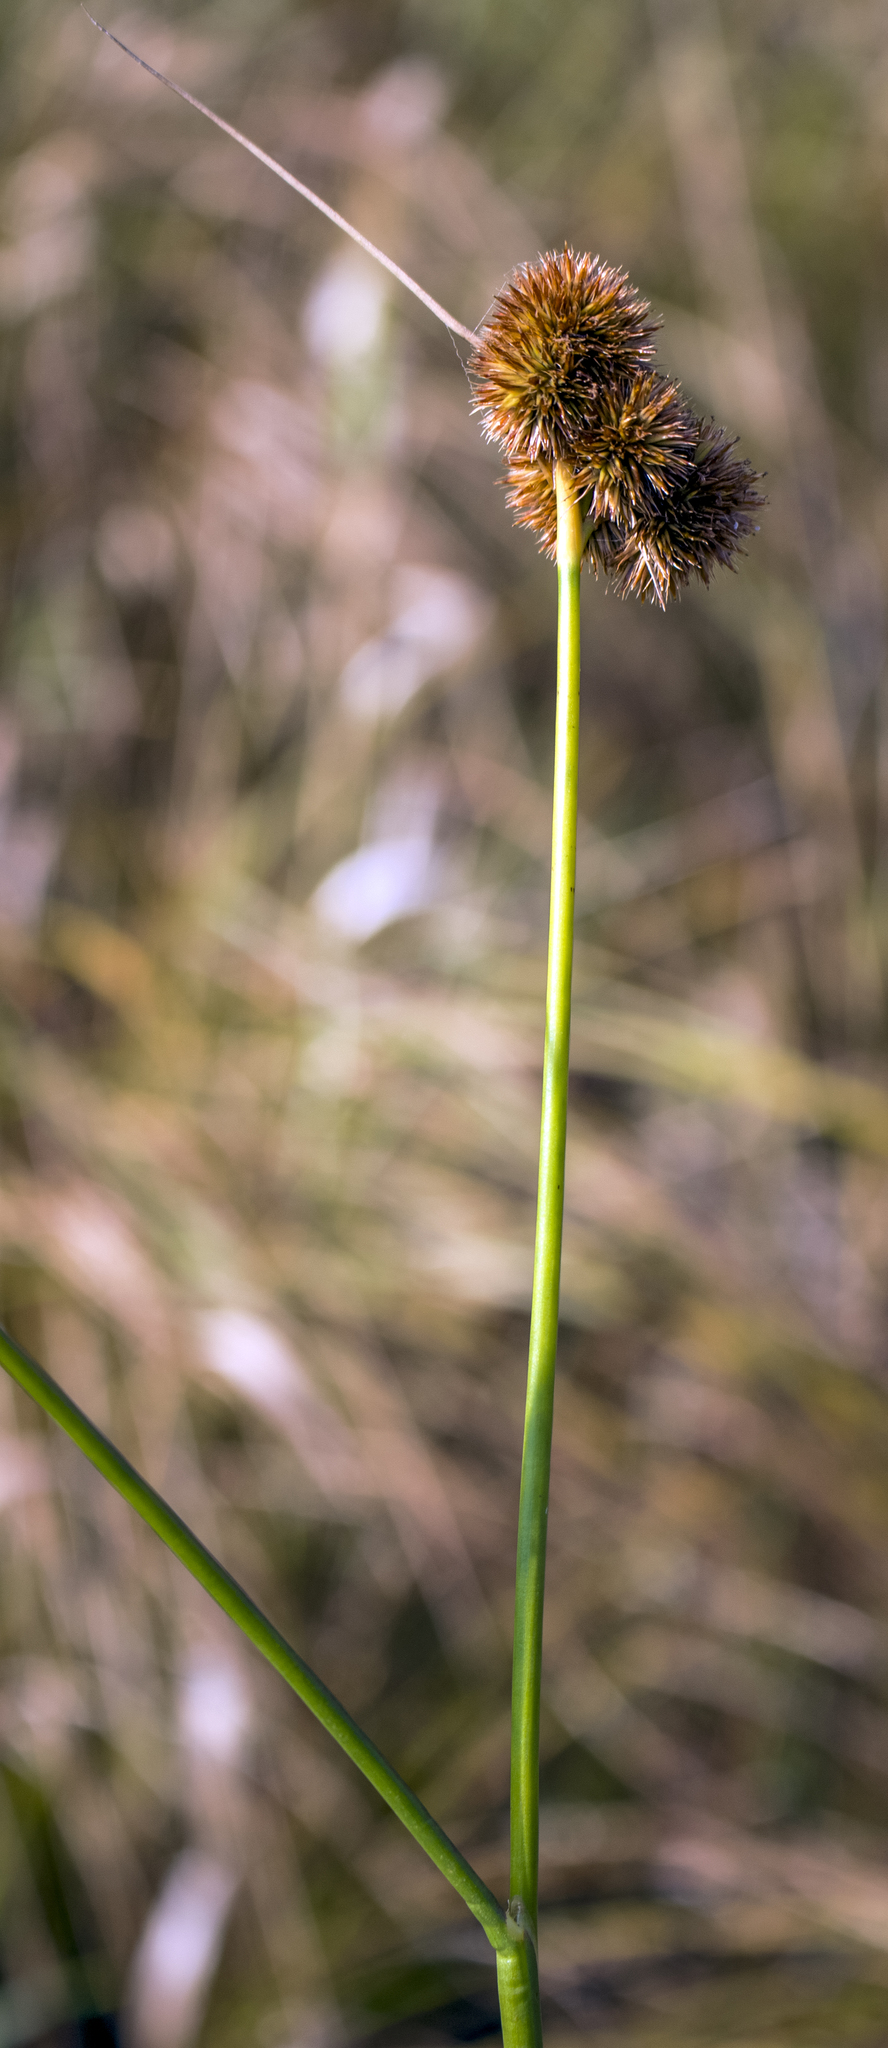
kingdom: Plantae
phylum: Tracheophyta
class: Liliopsida
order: Poales
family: Juncaceae
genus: Juncus
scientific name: Juncus torreyi
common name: Torrey's rush
